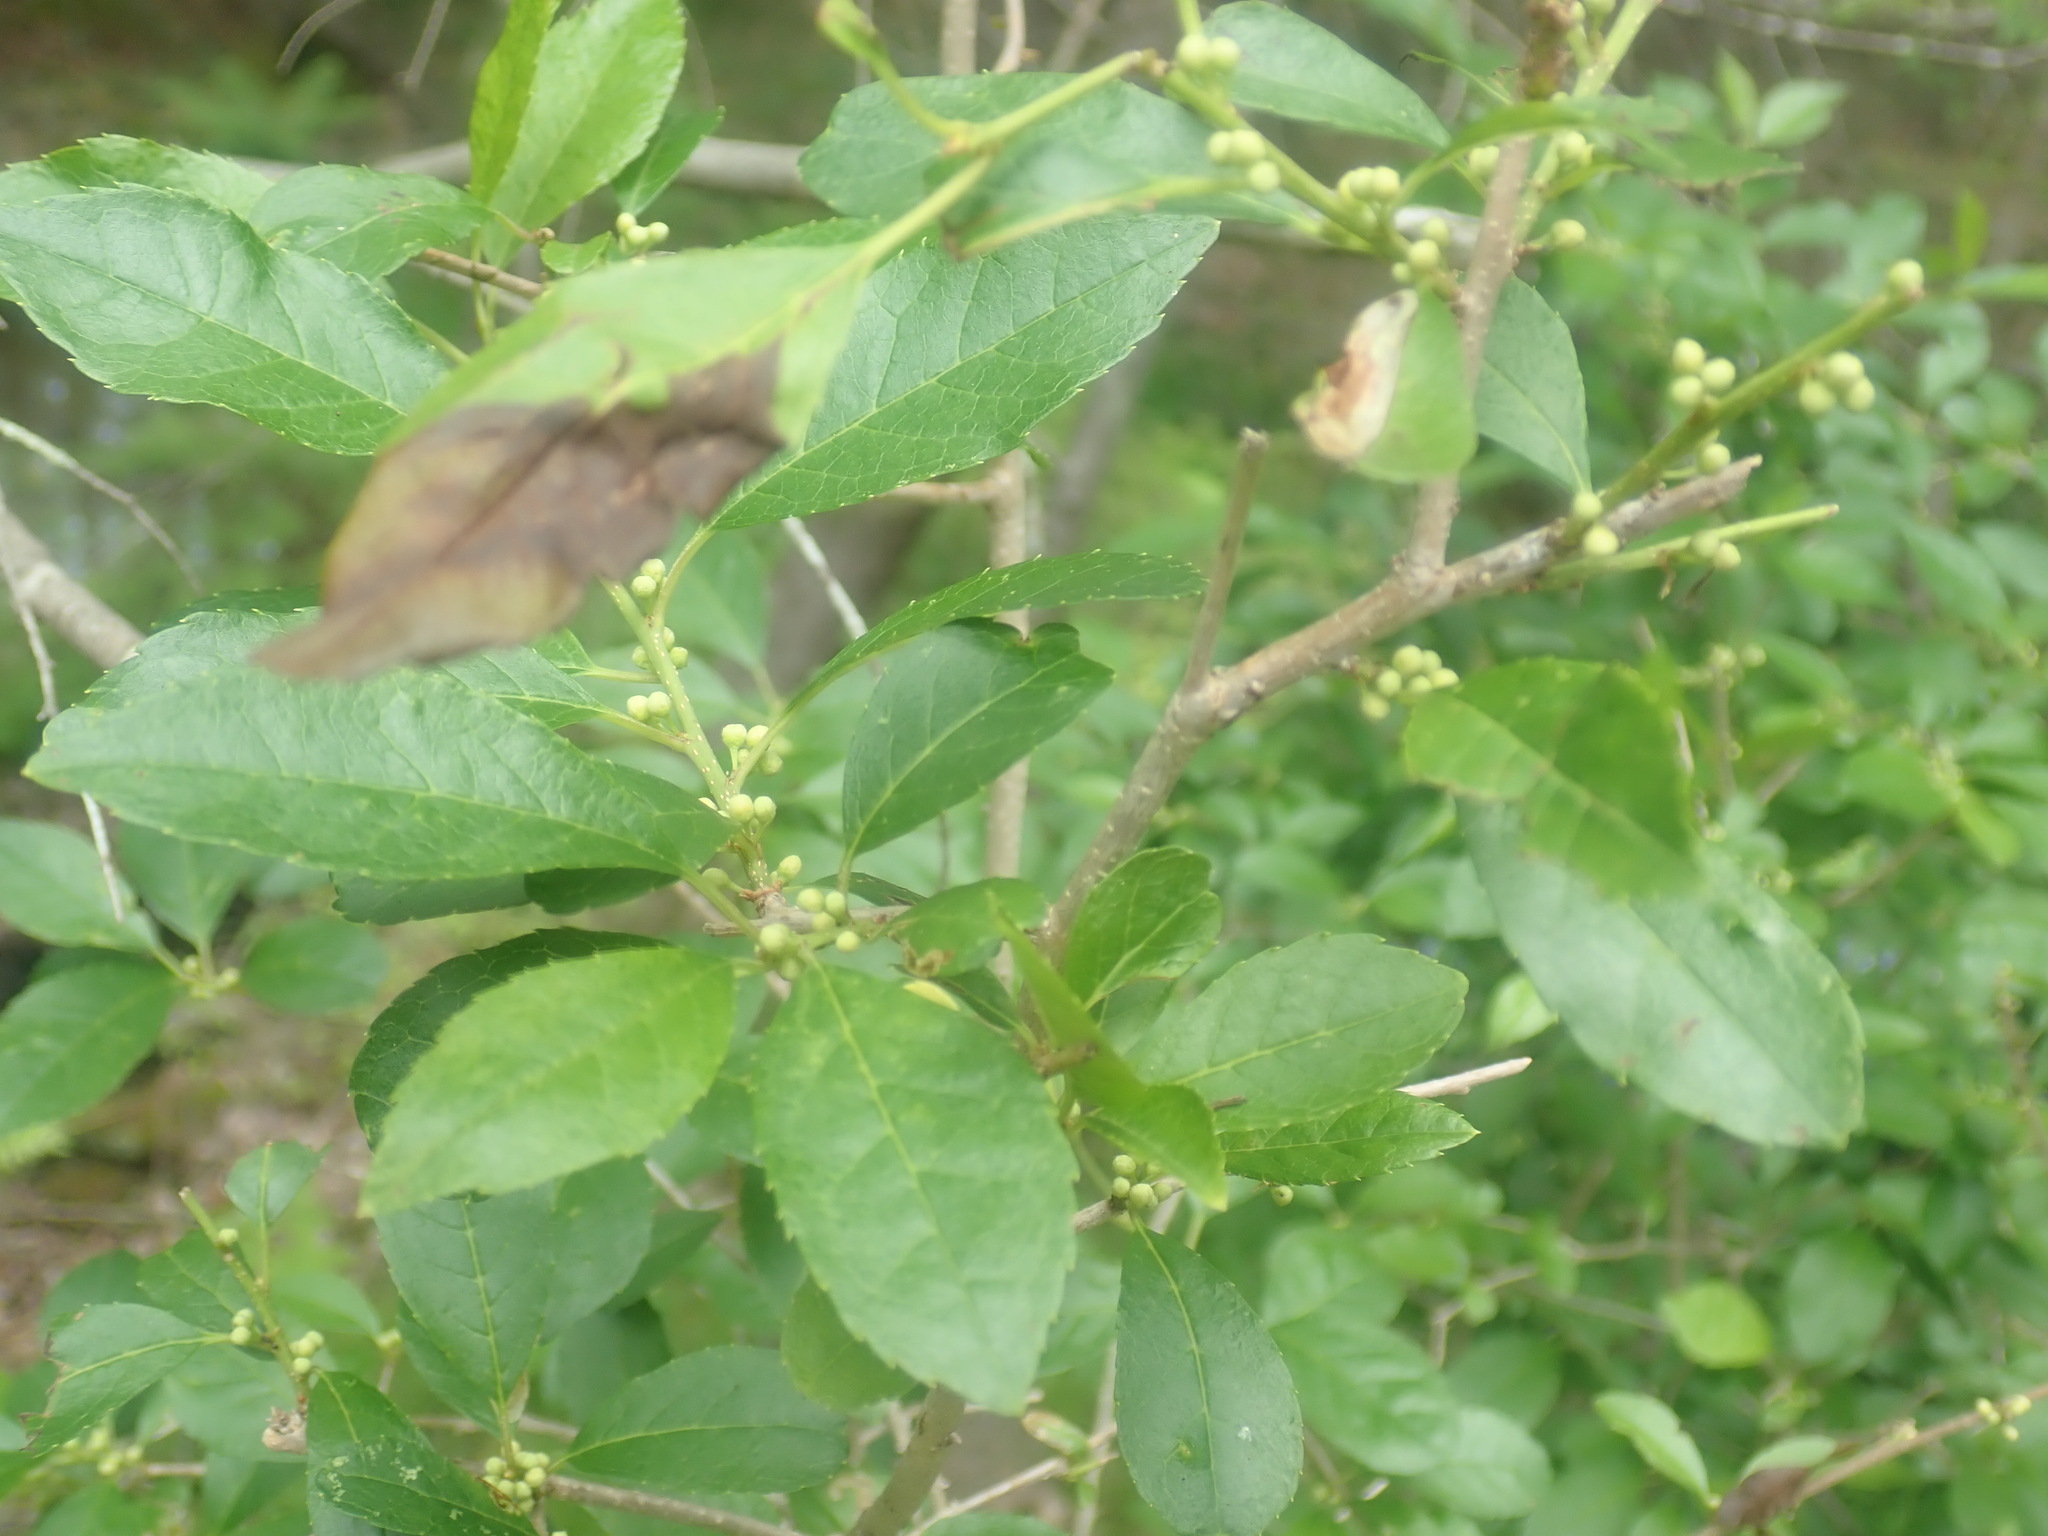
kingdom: Plantae
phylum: Tracheophyta
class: Magnoliopsida
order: Aquifoliales
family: Aquifoliaceae
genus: Ilex
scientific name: Ilex verticillata
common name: Virginia winterberry
